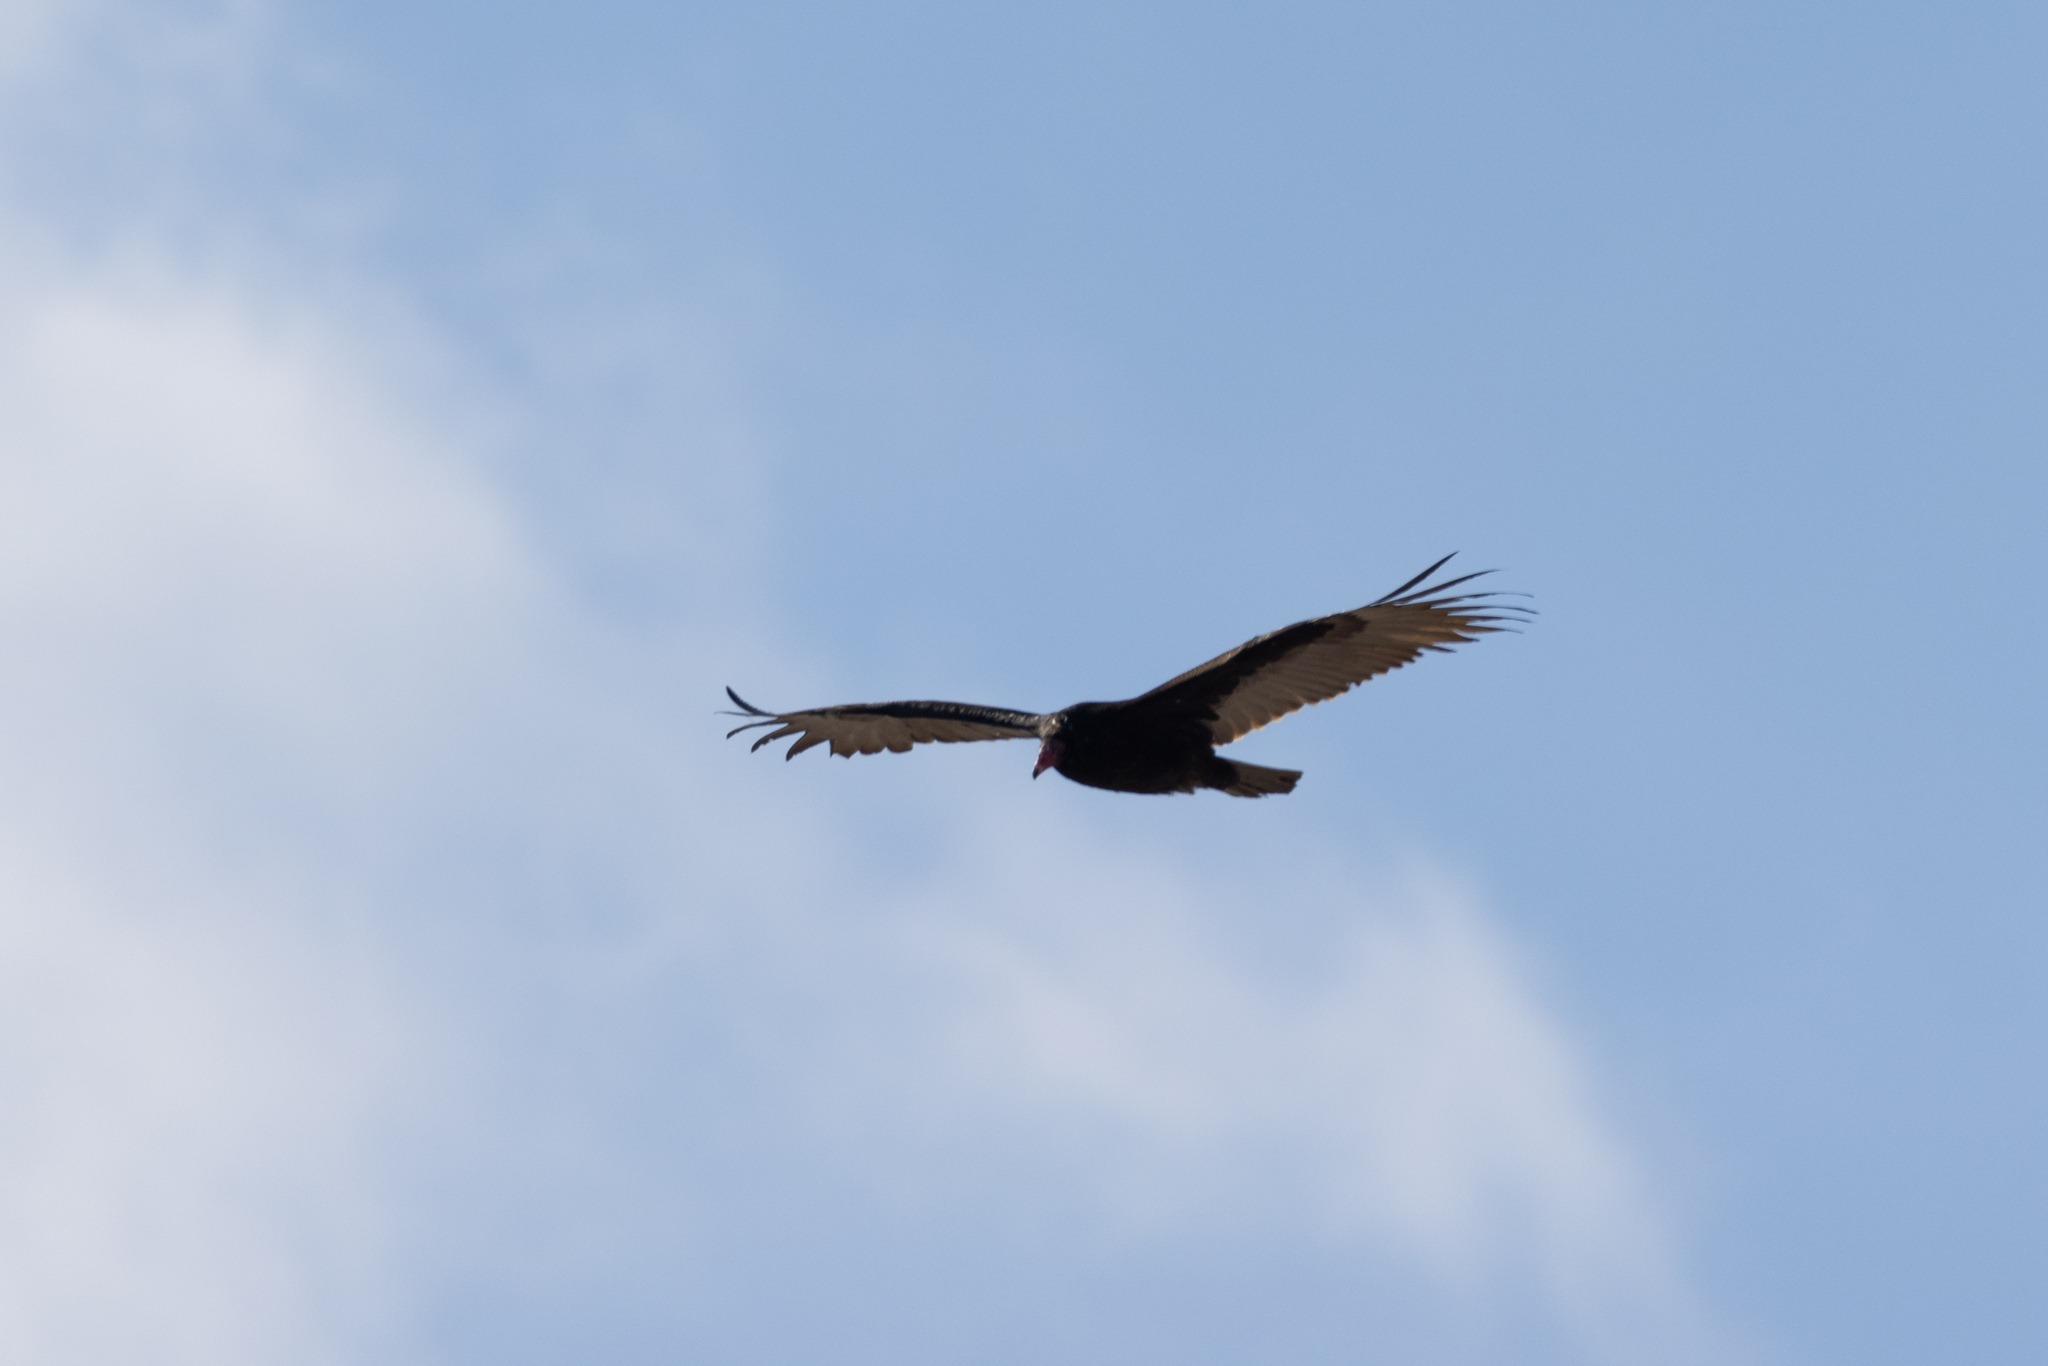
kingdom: Animalia
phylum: Chordata
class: Aves
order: Accipitriformes
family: Cathartidae
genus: Cathartes
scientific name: Cathartes aura
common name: Turkey vulture
